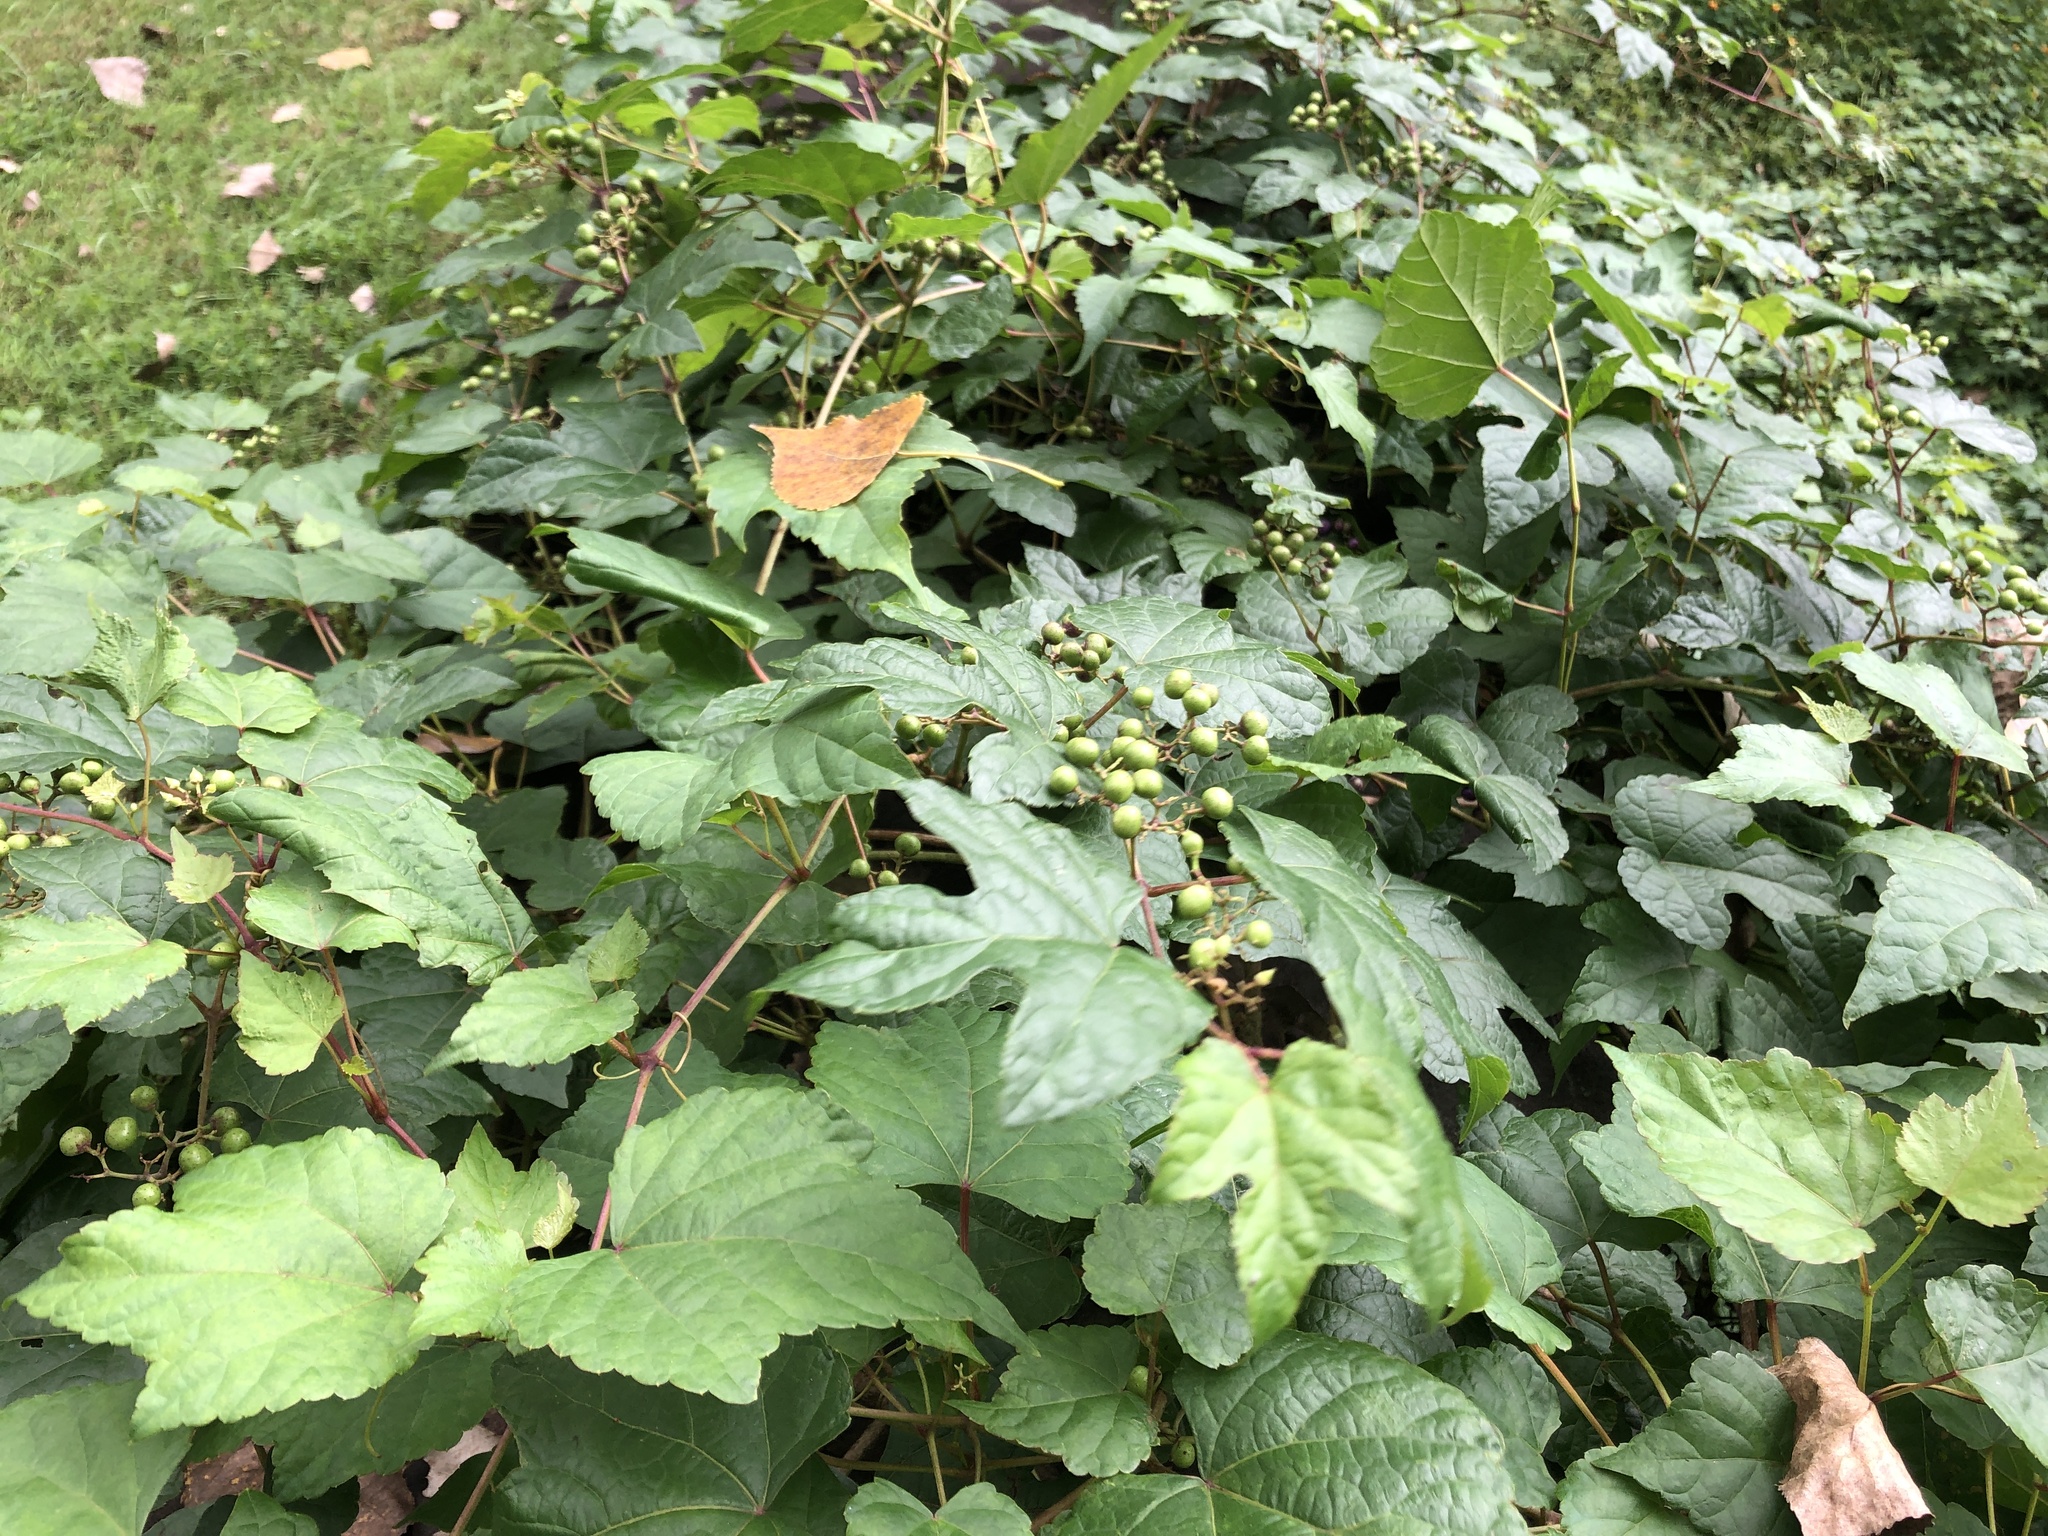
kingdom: Plantae
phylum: Tracheophyta
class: Magnoliopsida
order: Vitales
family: Vitaceae
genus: Ampelopsis
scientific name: Ampelopsis glandulosa
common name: Amur peppervine
